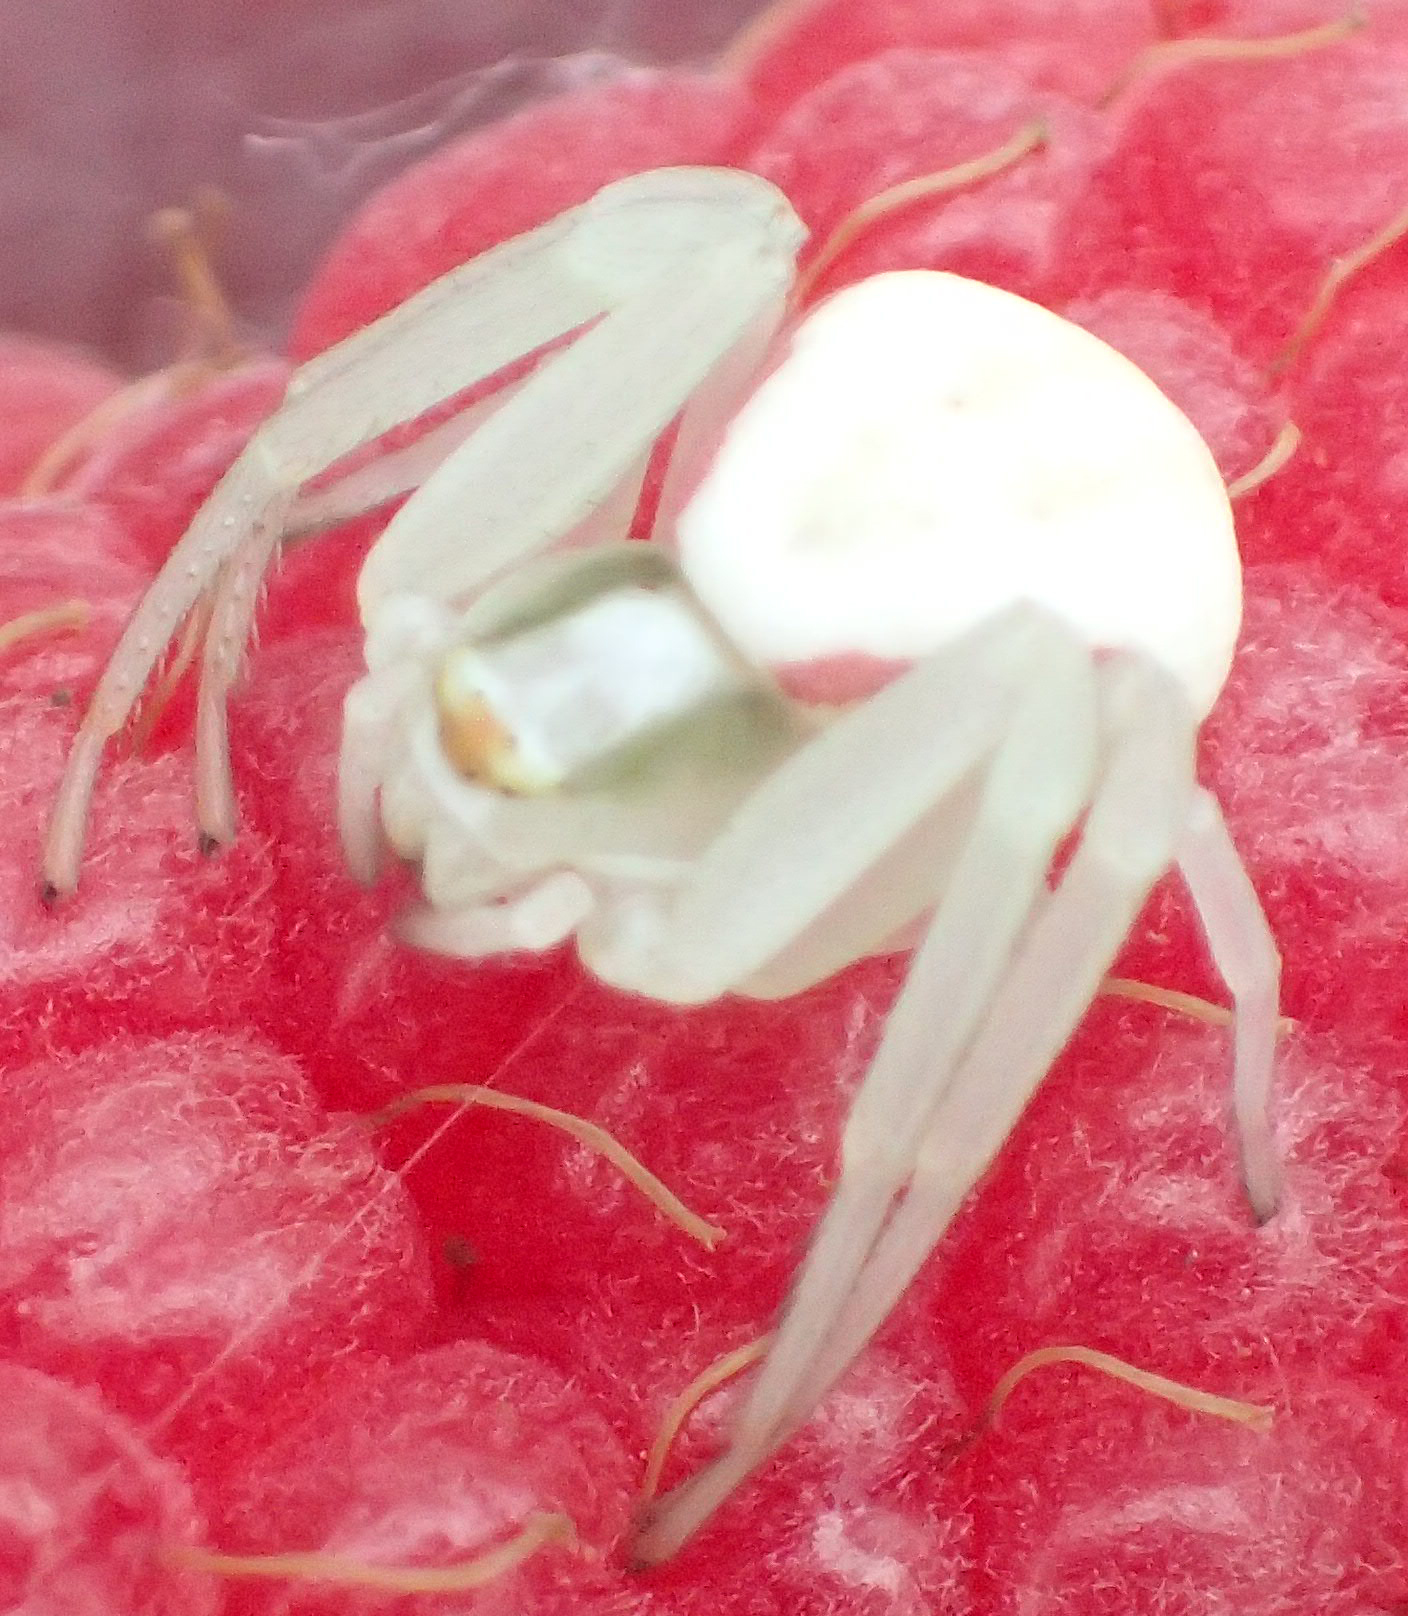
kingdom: Animalia
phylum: Arthropoda
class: Arachnida
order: Araneae
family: Thomisidae
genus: Misumena
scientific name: Misumena vatia
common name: Goldenrod crab spider
